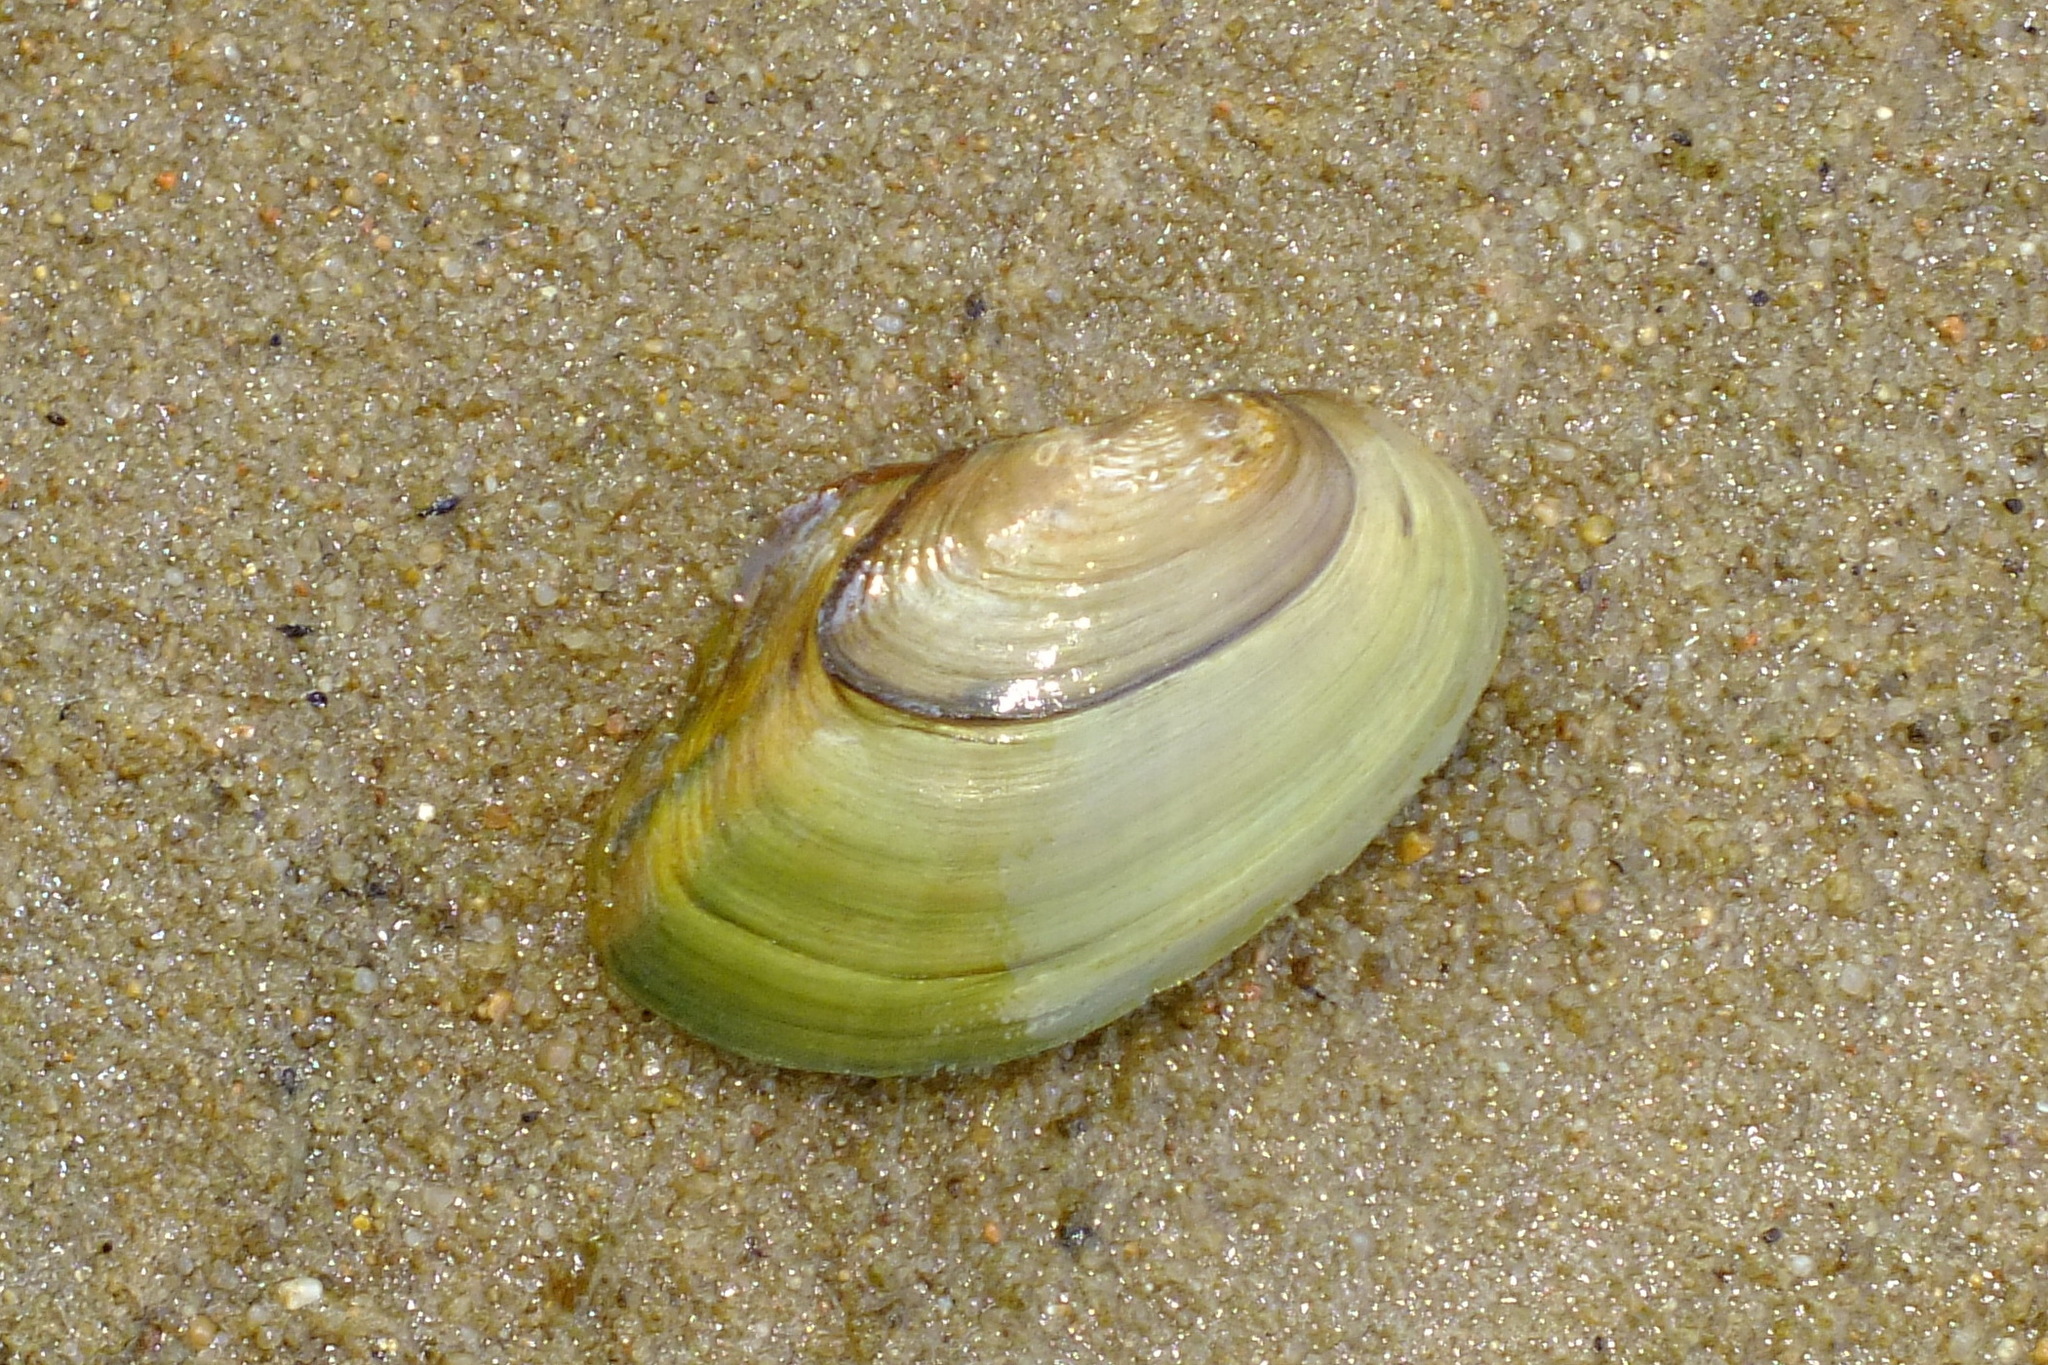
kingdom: Animalia
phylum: Mollusca
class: Bivalvia
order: Unionida
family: Unionidae
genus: Anodonta
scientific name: Anodonta cygnea
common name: Swan mussel
